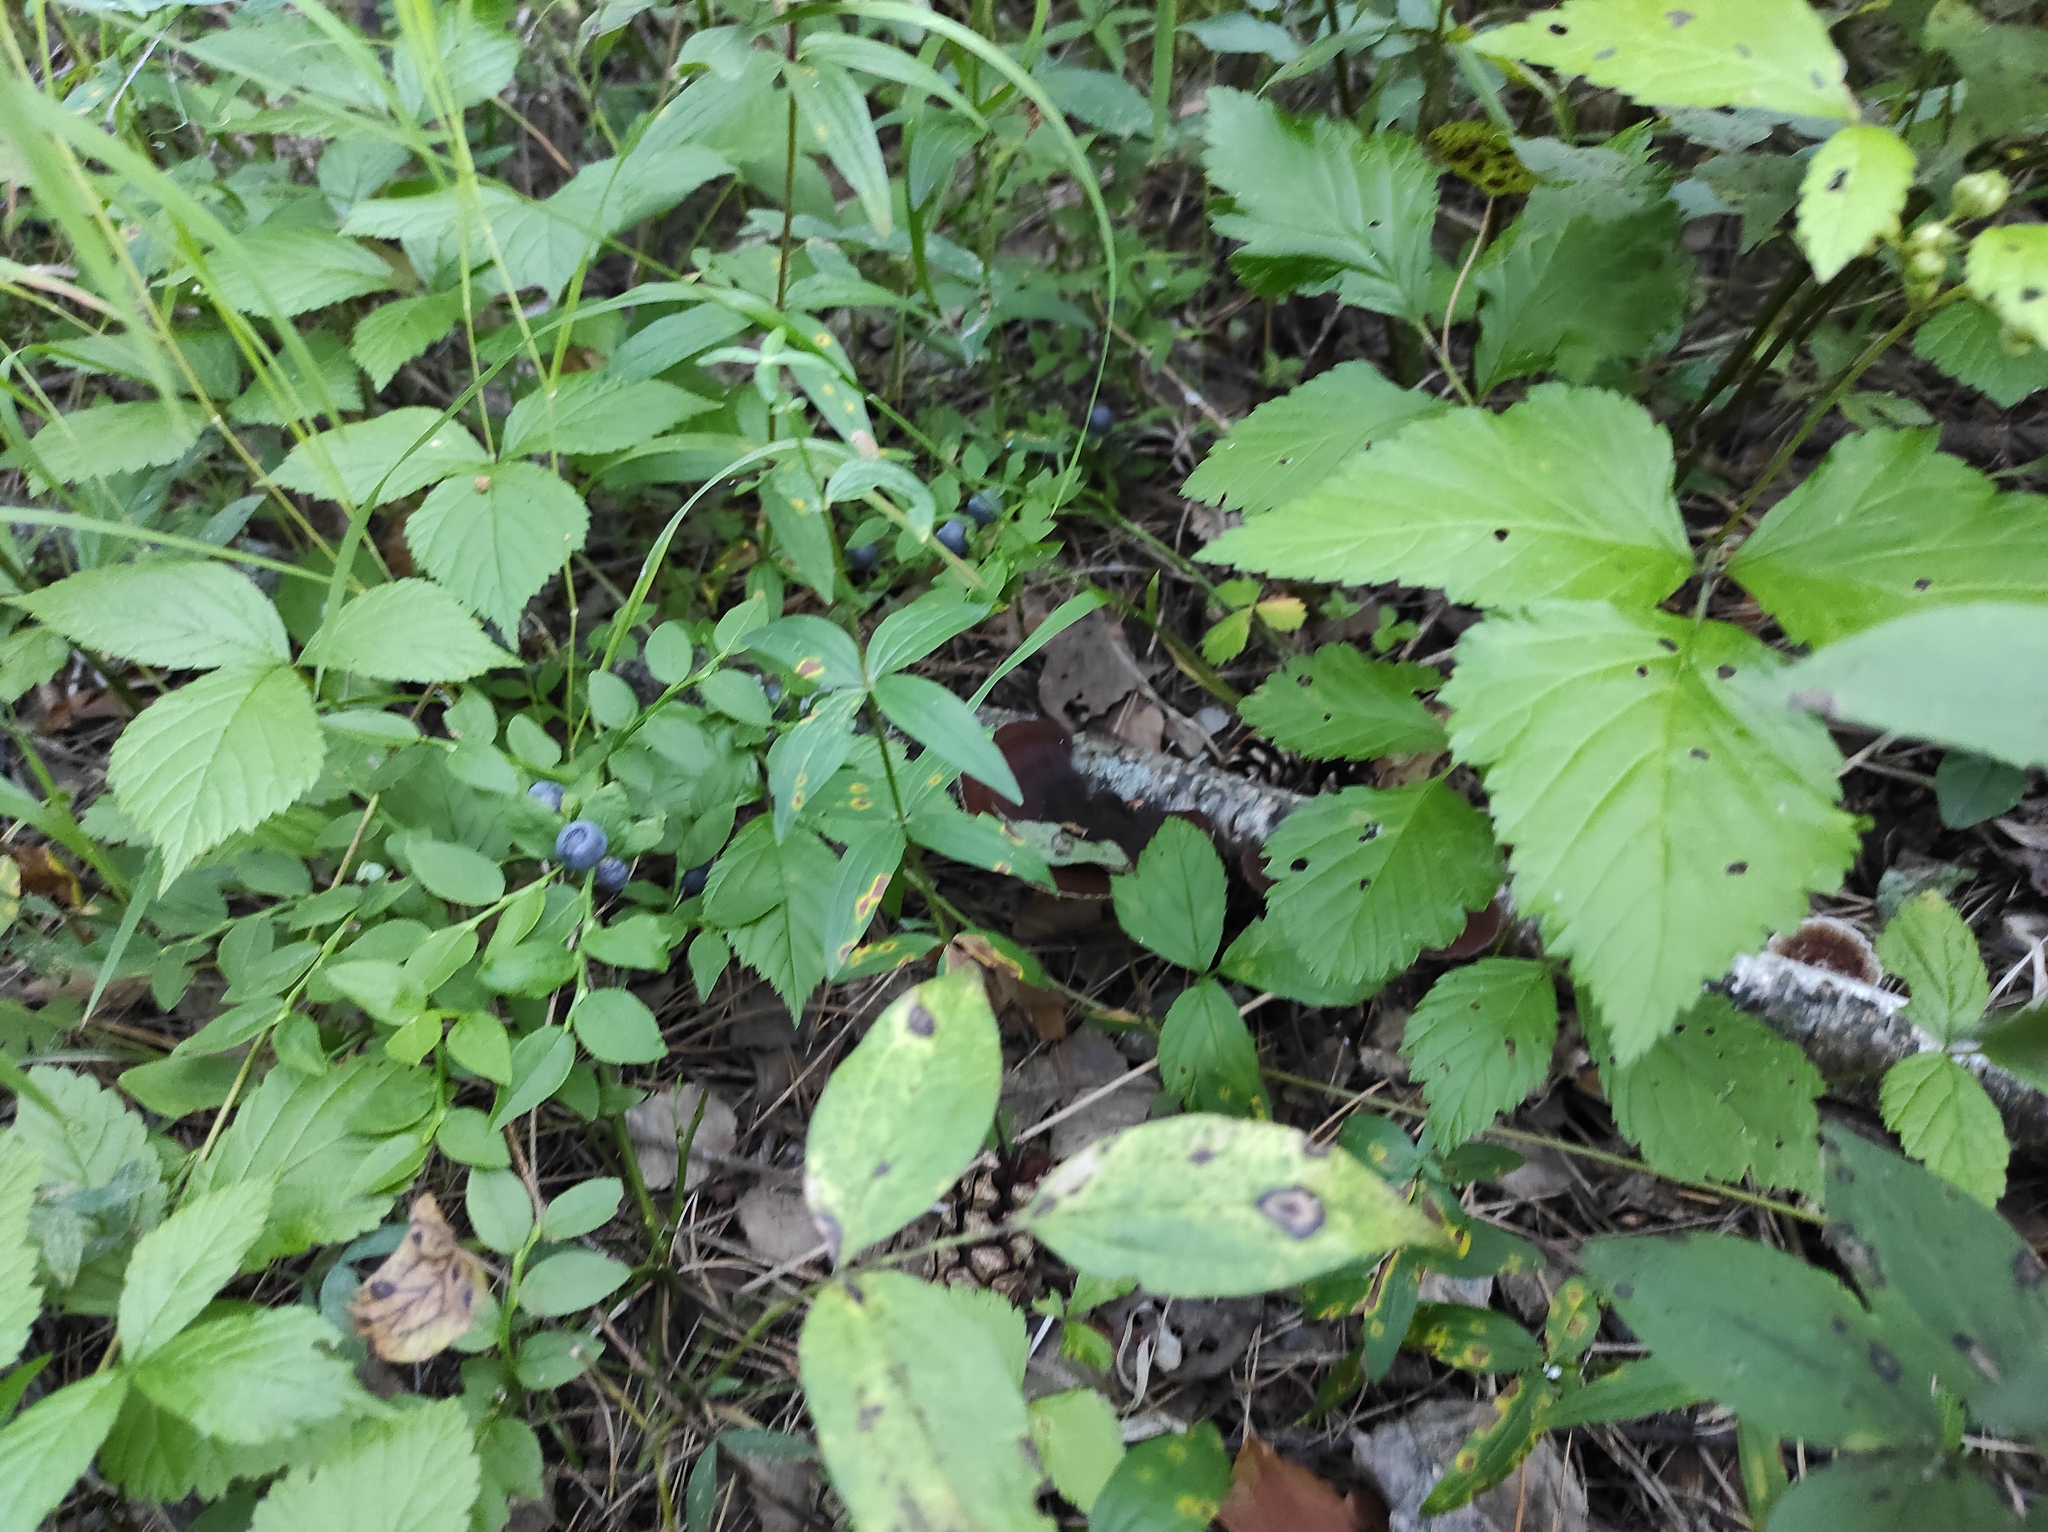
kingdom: Plantae
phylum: Tracheophyta
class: Magnoliopsida
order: Rosales
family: Rosaceae
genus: Rubus
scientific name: Rubus saxatilis
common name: Stone bramble
